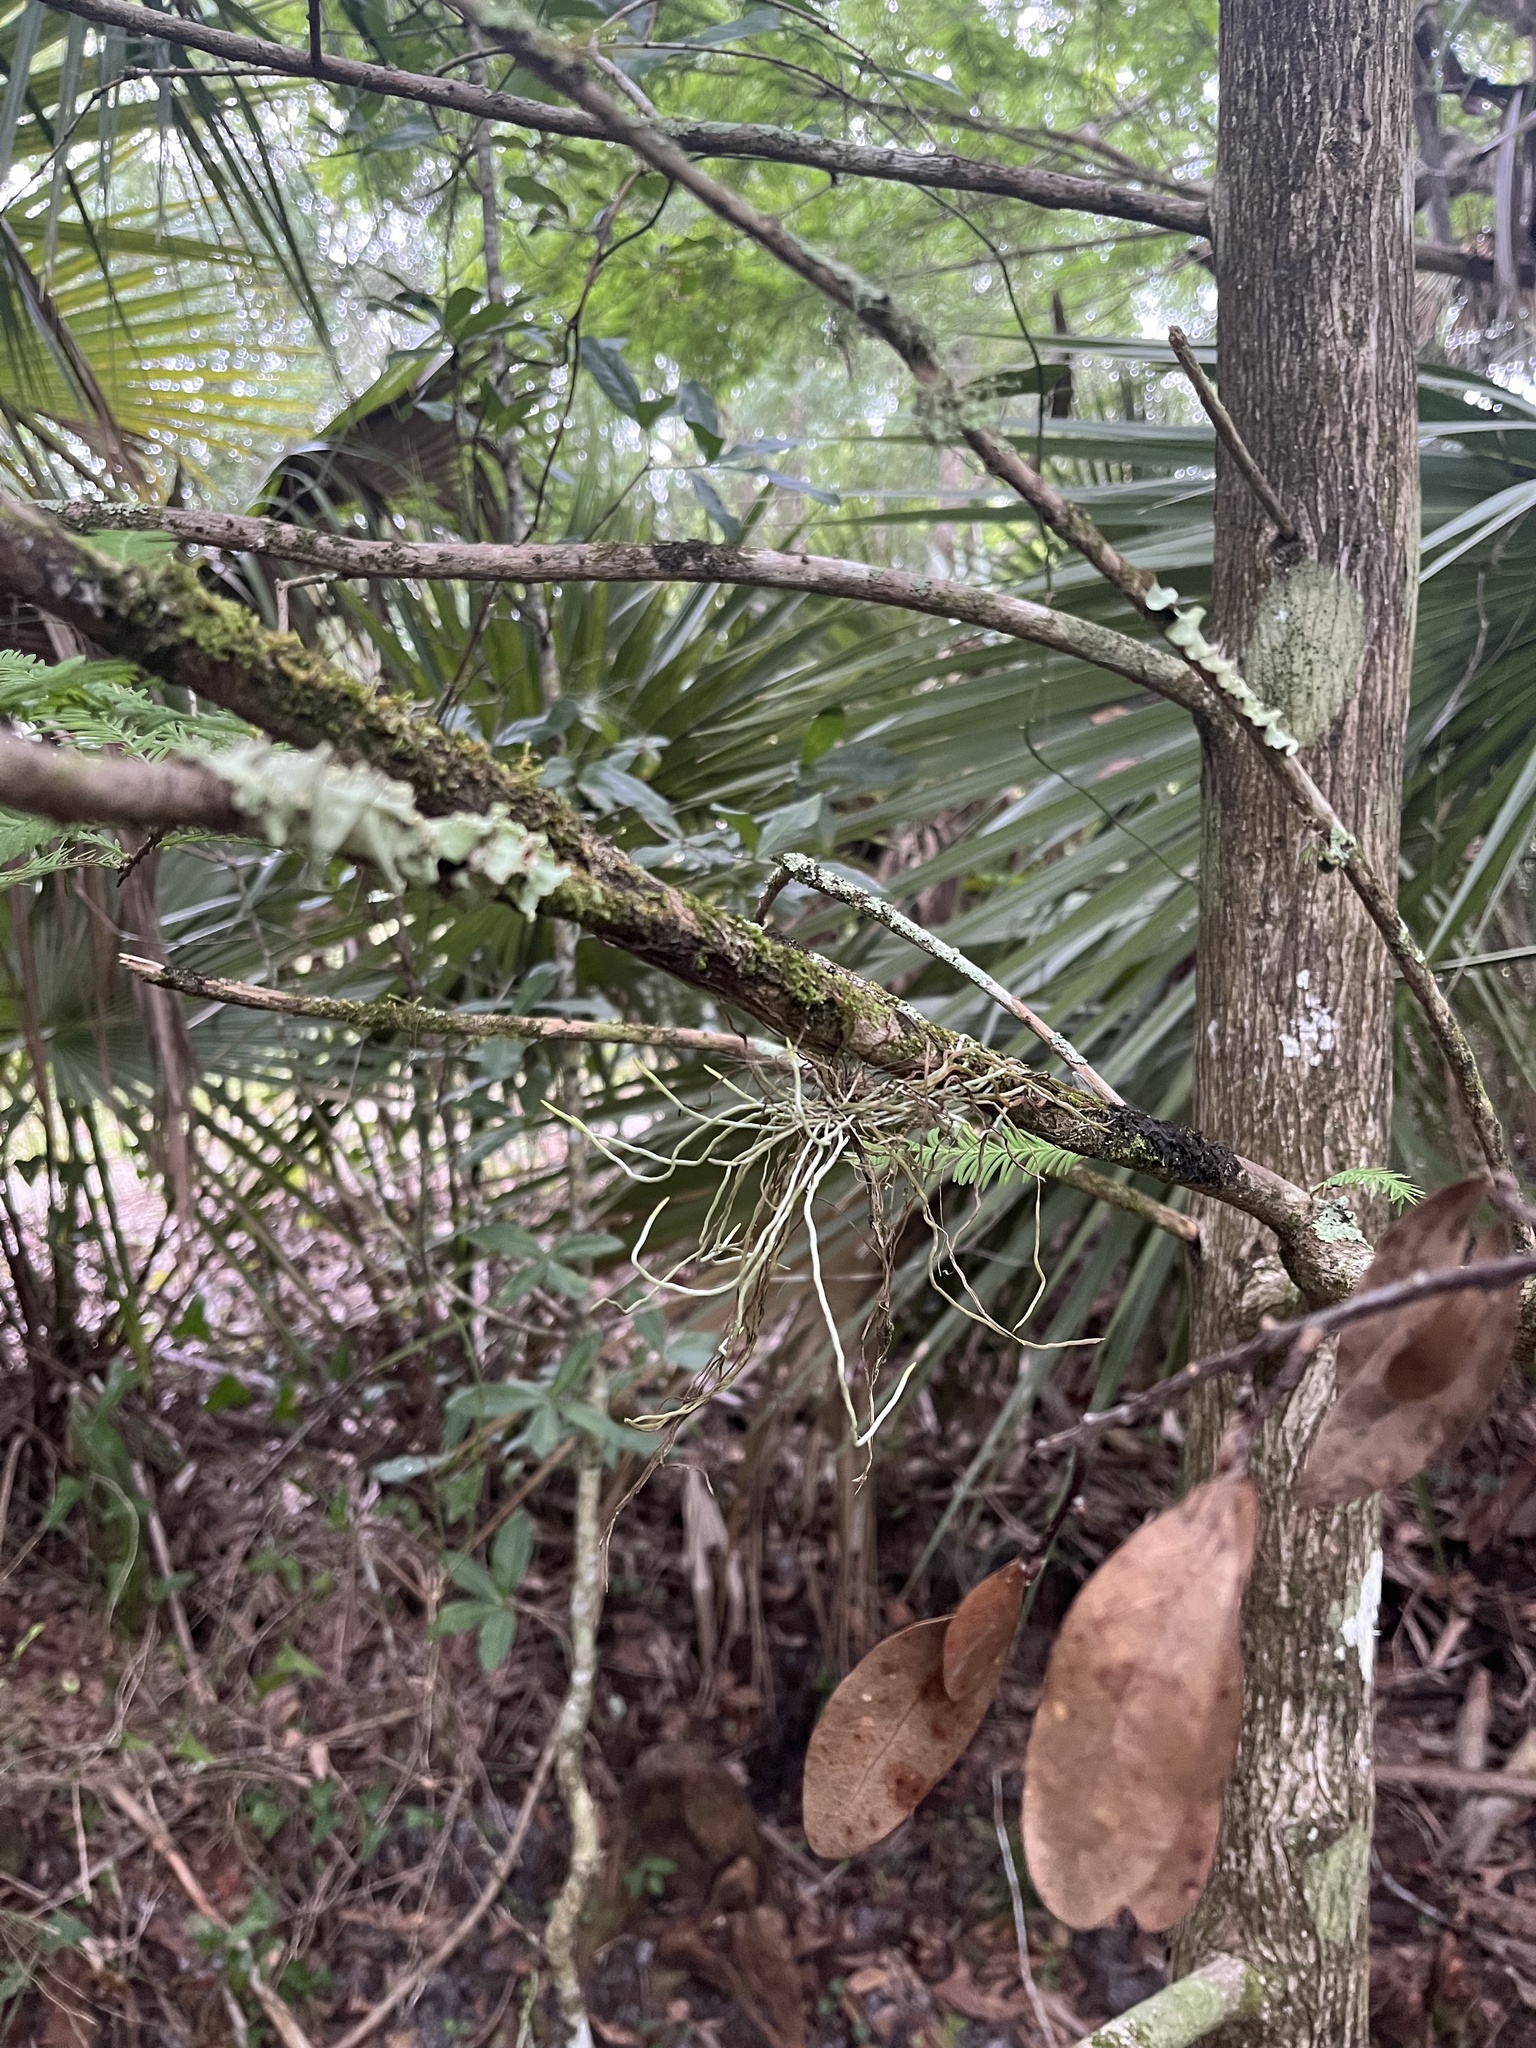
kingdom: Plantae
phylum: Tracheophyta
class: Liliopsida
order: Asparagales
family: Orchidaceae
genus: Dendrophylax
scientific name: Dendrophylax porrectus
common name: Needleroot airplant orchid
